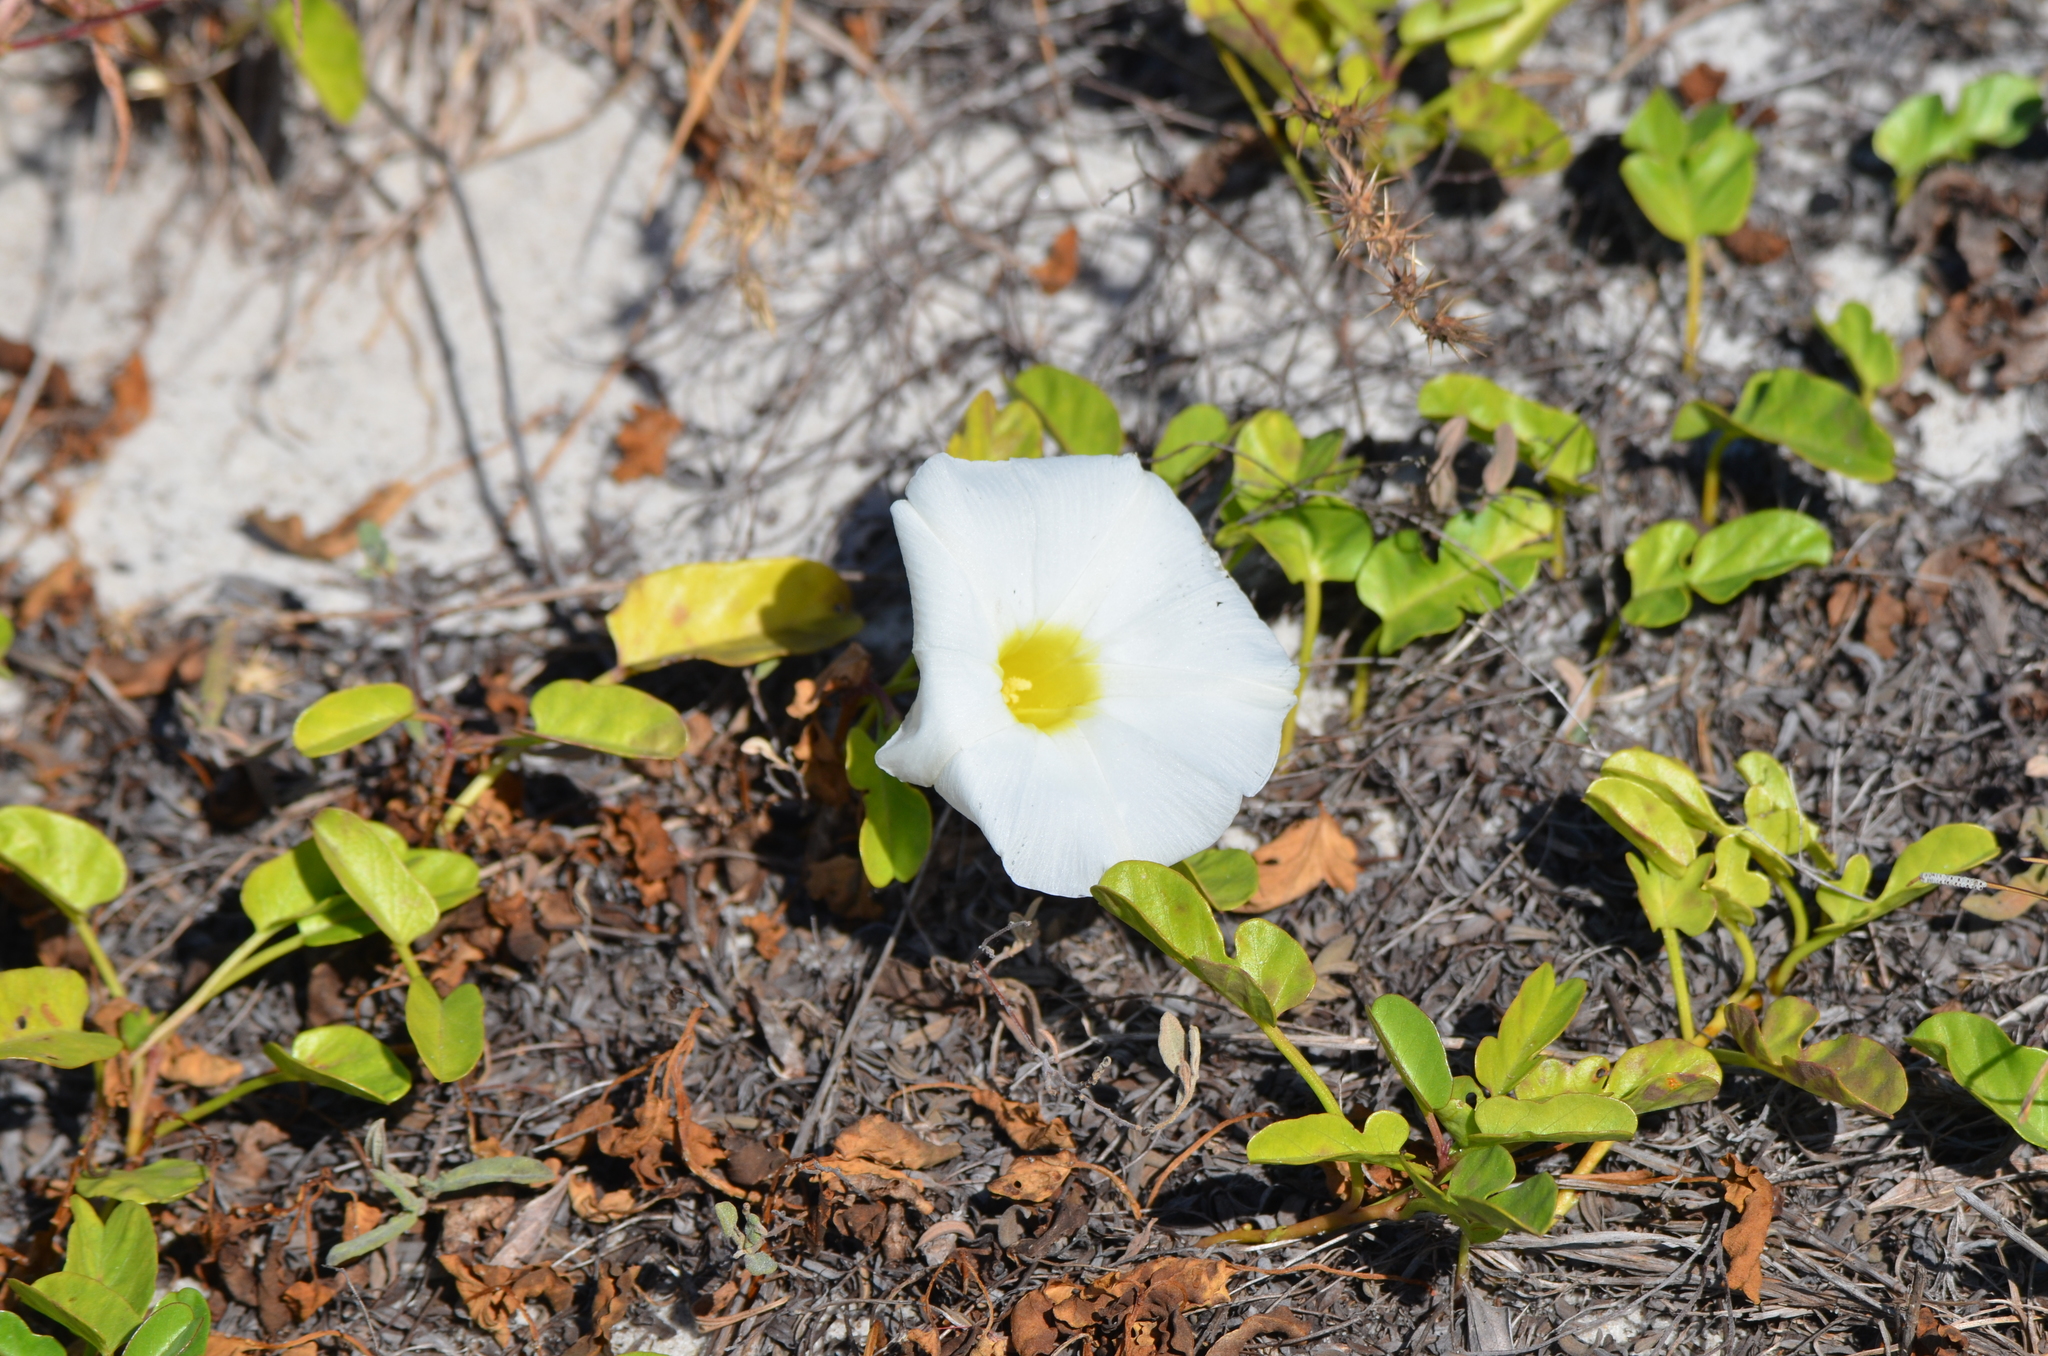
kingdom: Plantae
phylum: Tracheophyta
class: Magnoliopsida
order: Solanales
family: Convolvulaceae
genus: Ipomoea
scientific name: Ipomoea imperati
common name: Fiddle-leaf morning-glory
